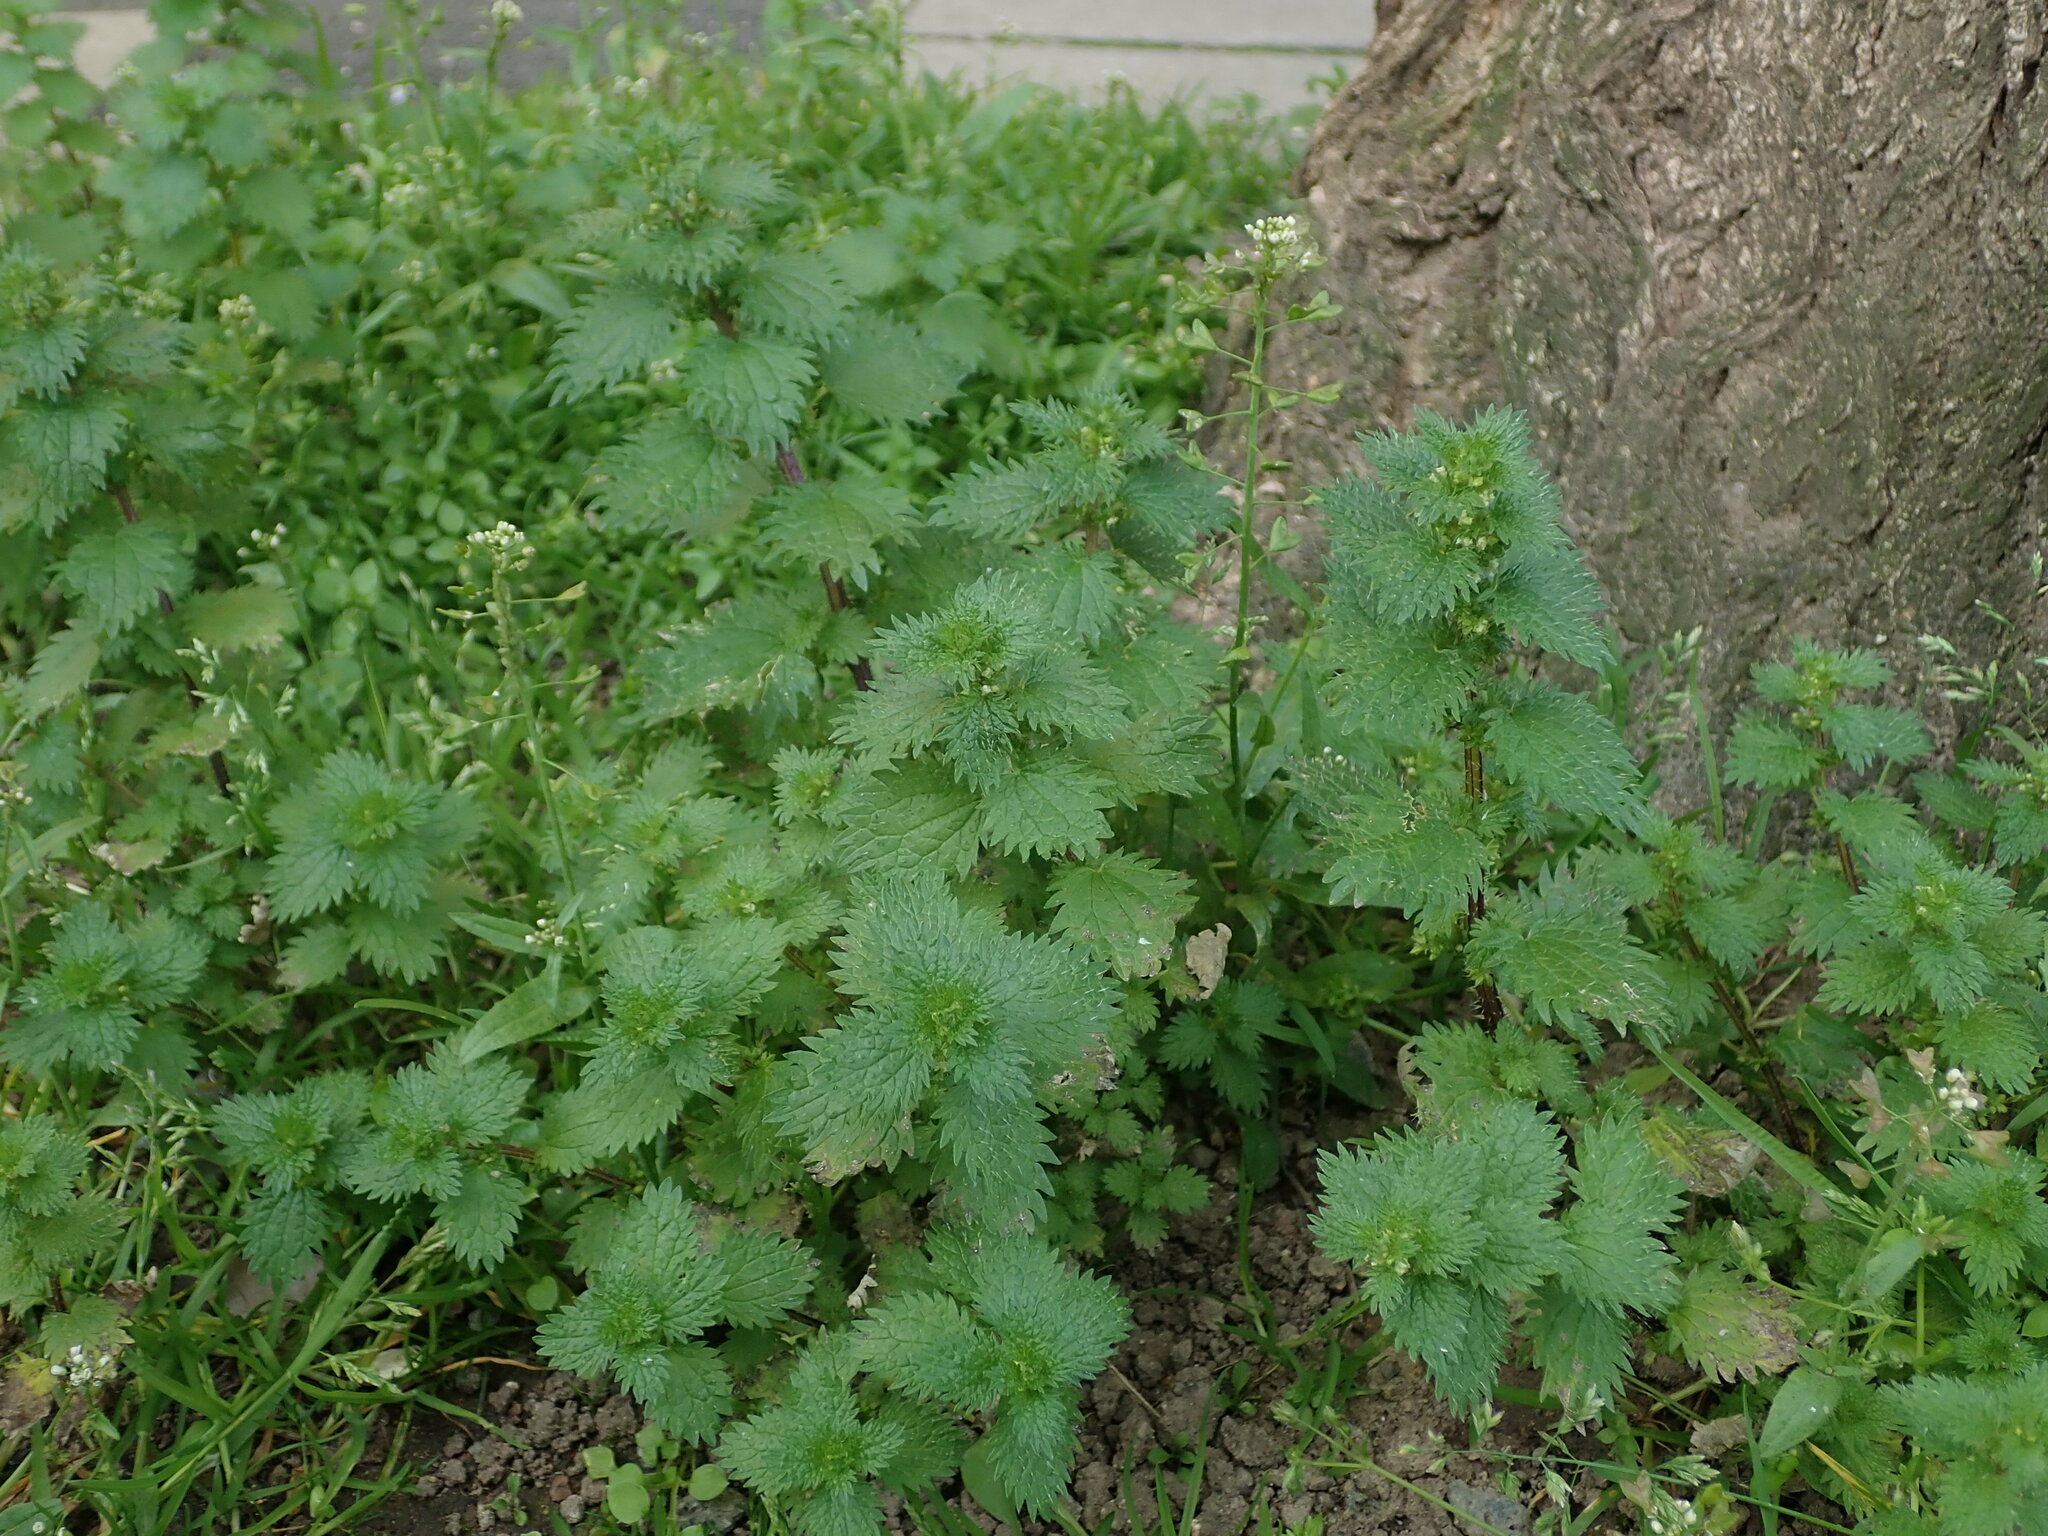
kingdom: Plantae
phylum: Tracheophyta
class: Magnoliopsida
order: Rosales
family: Urticaceae
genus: Urtica
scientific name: Urtica urens
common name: Dwarf nettle
